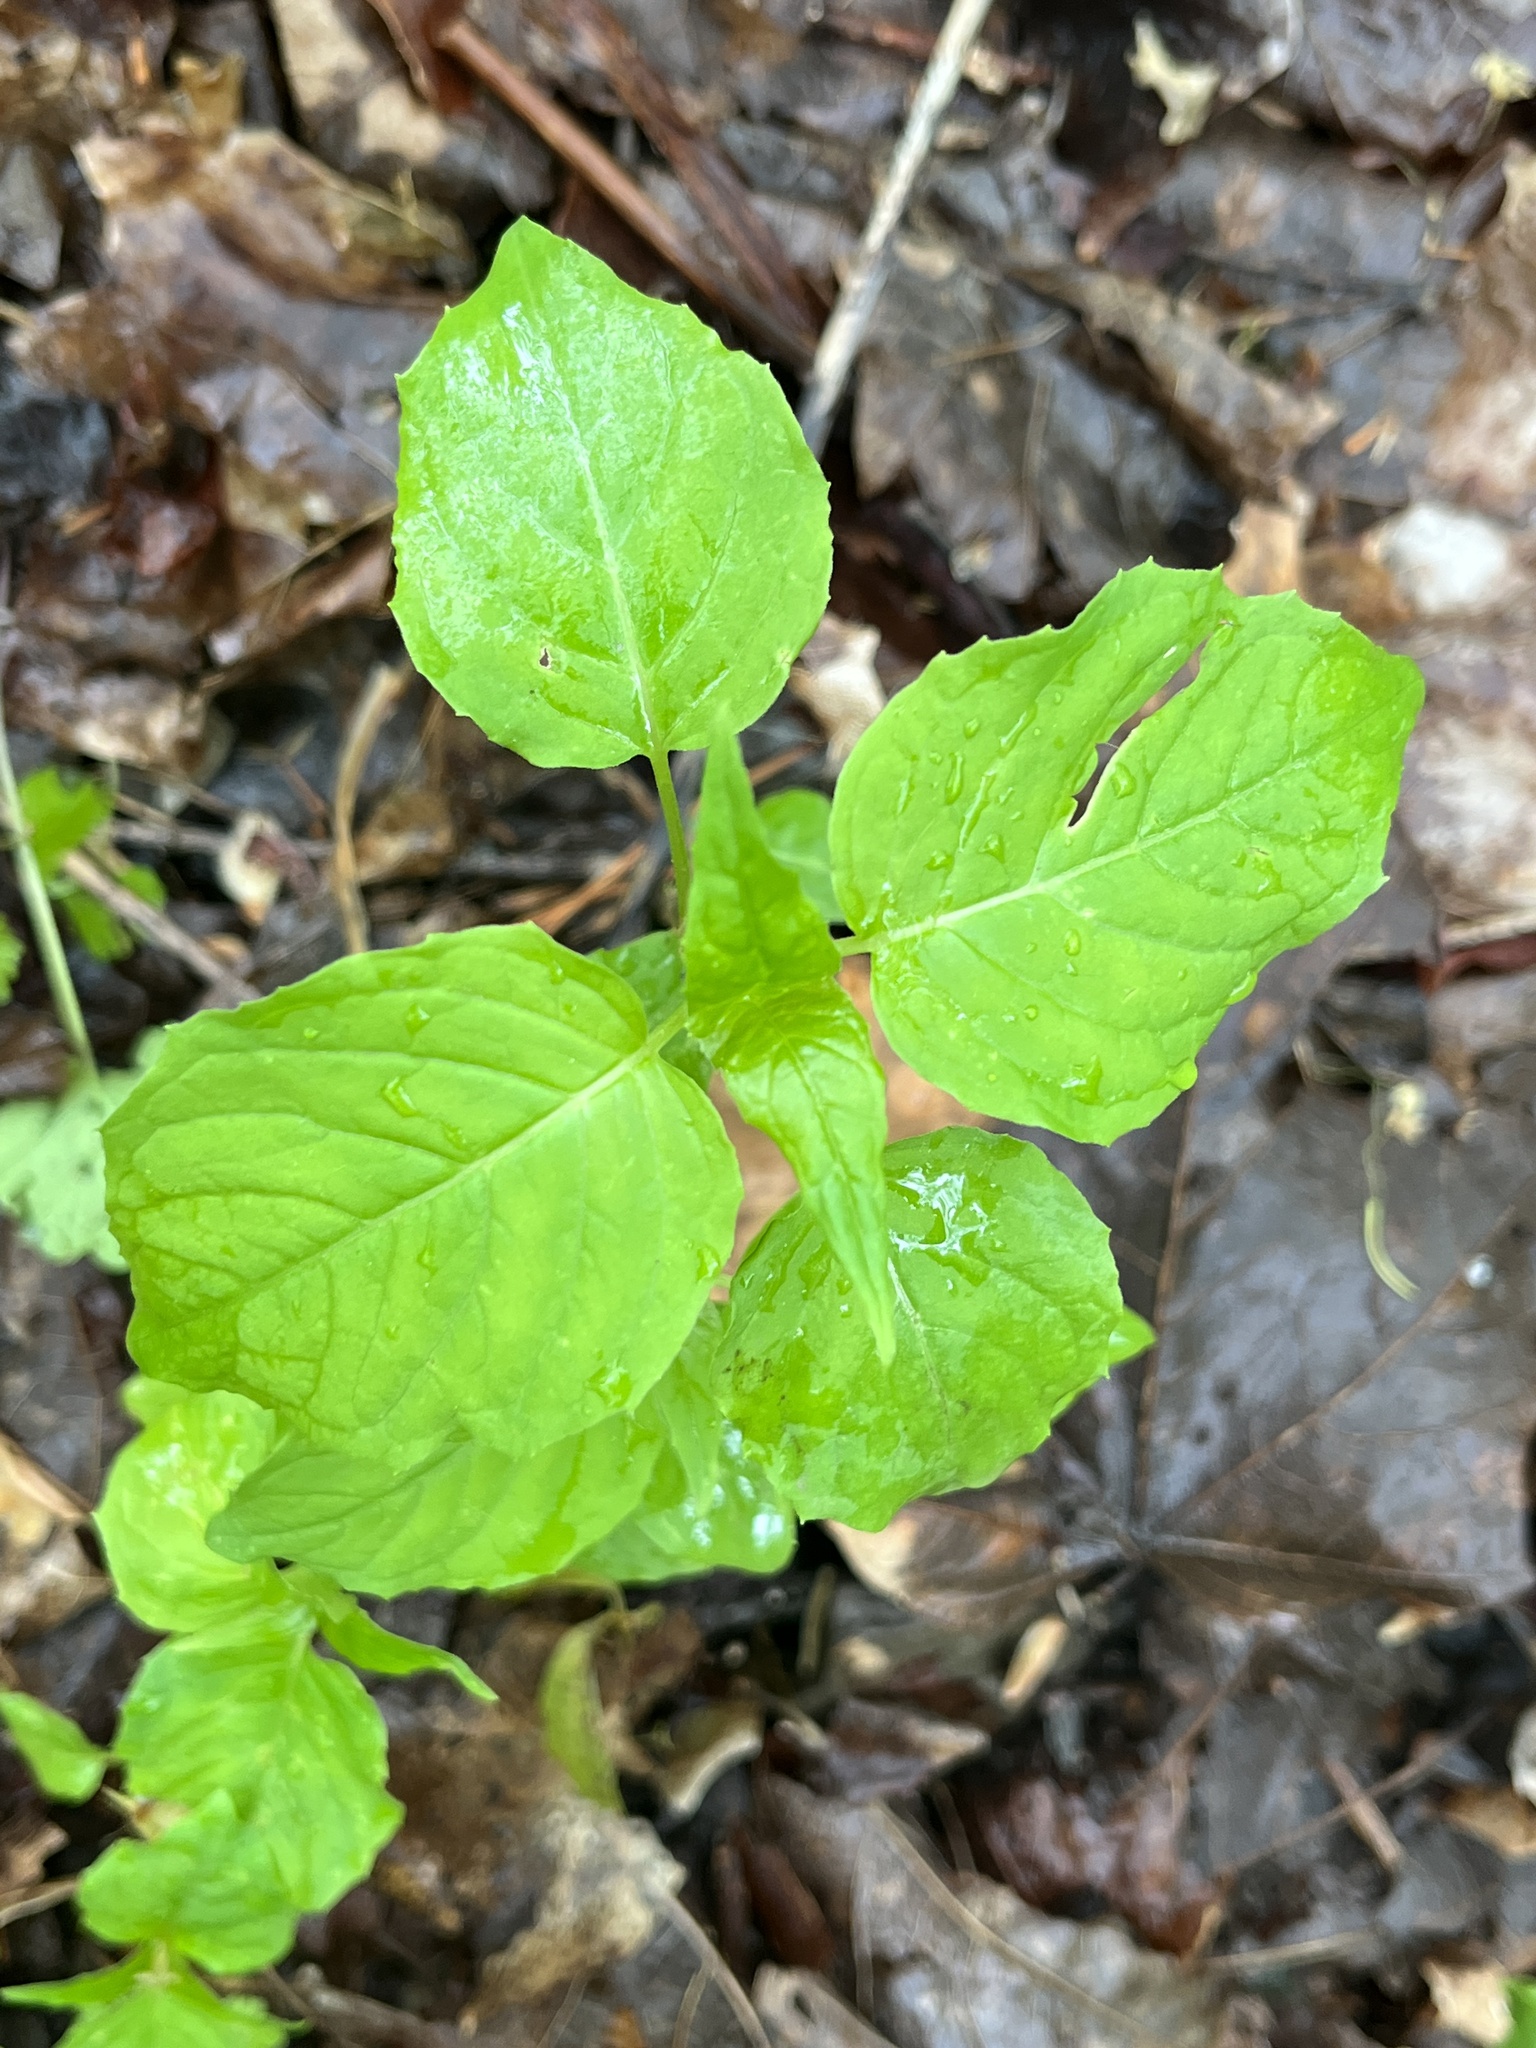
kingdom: Plantae
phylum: Tracheophyta
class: Magnoliopsida
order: Myrtales
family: Onagraceae
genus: Circaea
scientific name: Circaea canadensis
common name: Broad-leaved enchanter's nightshade
